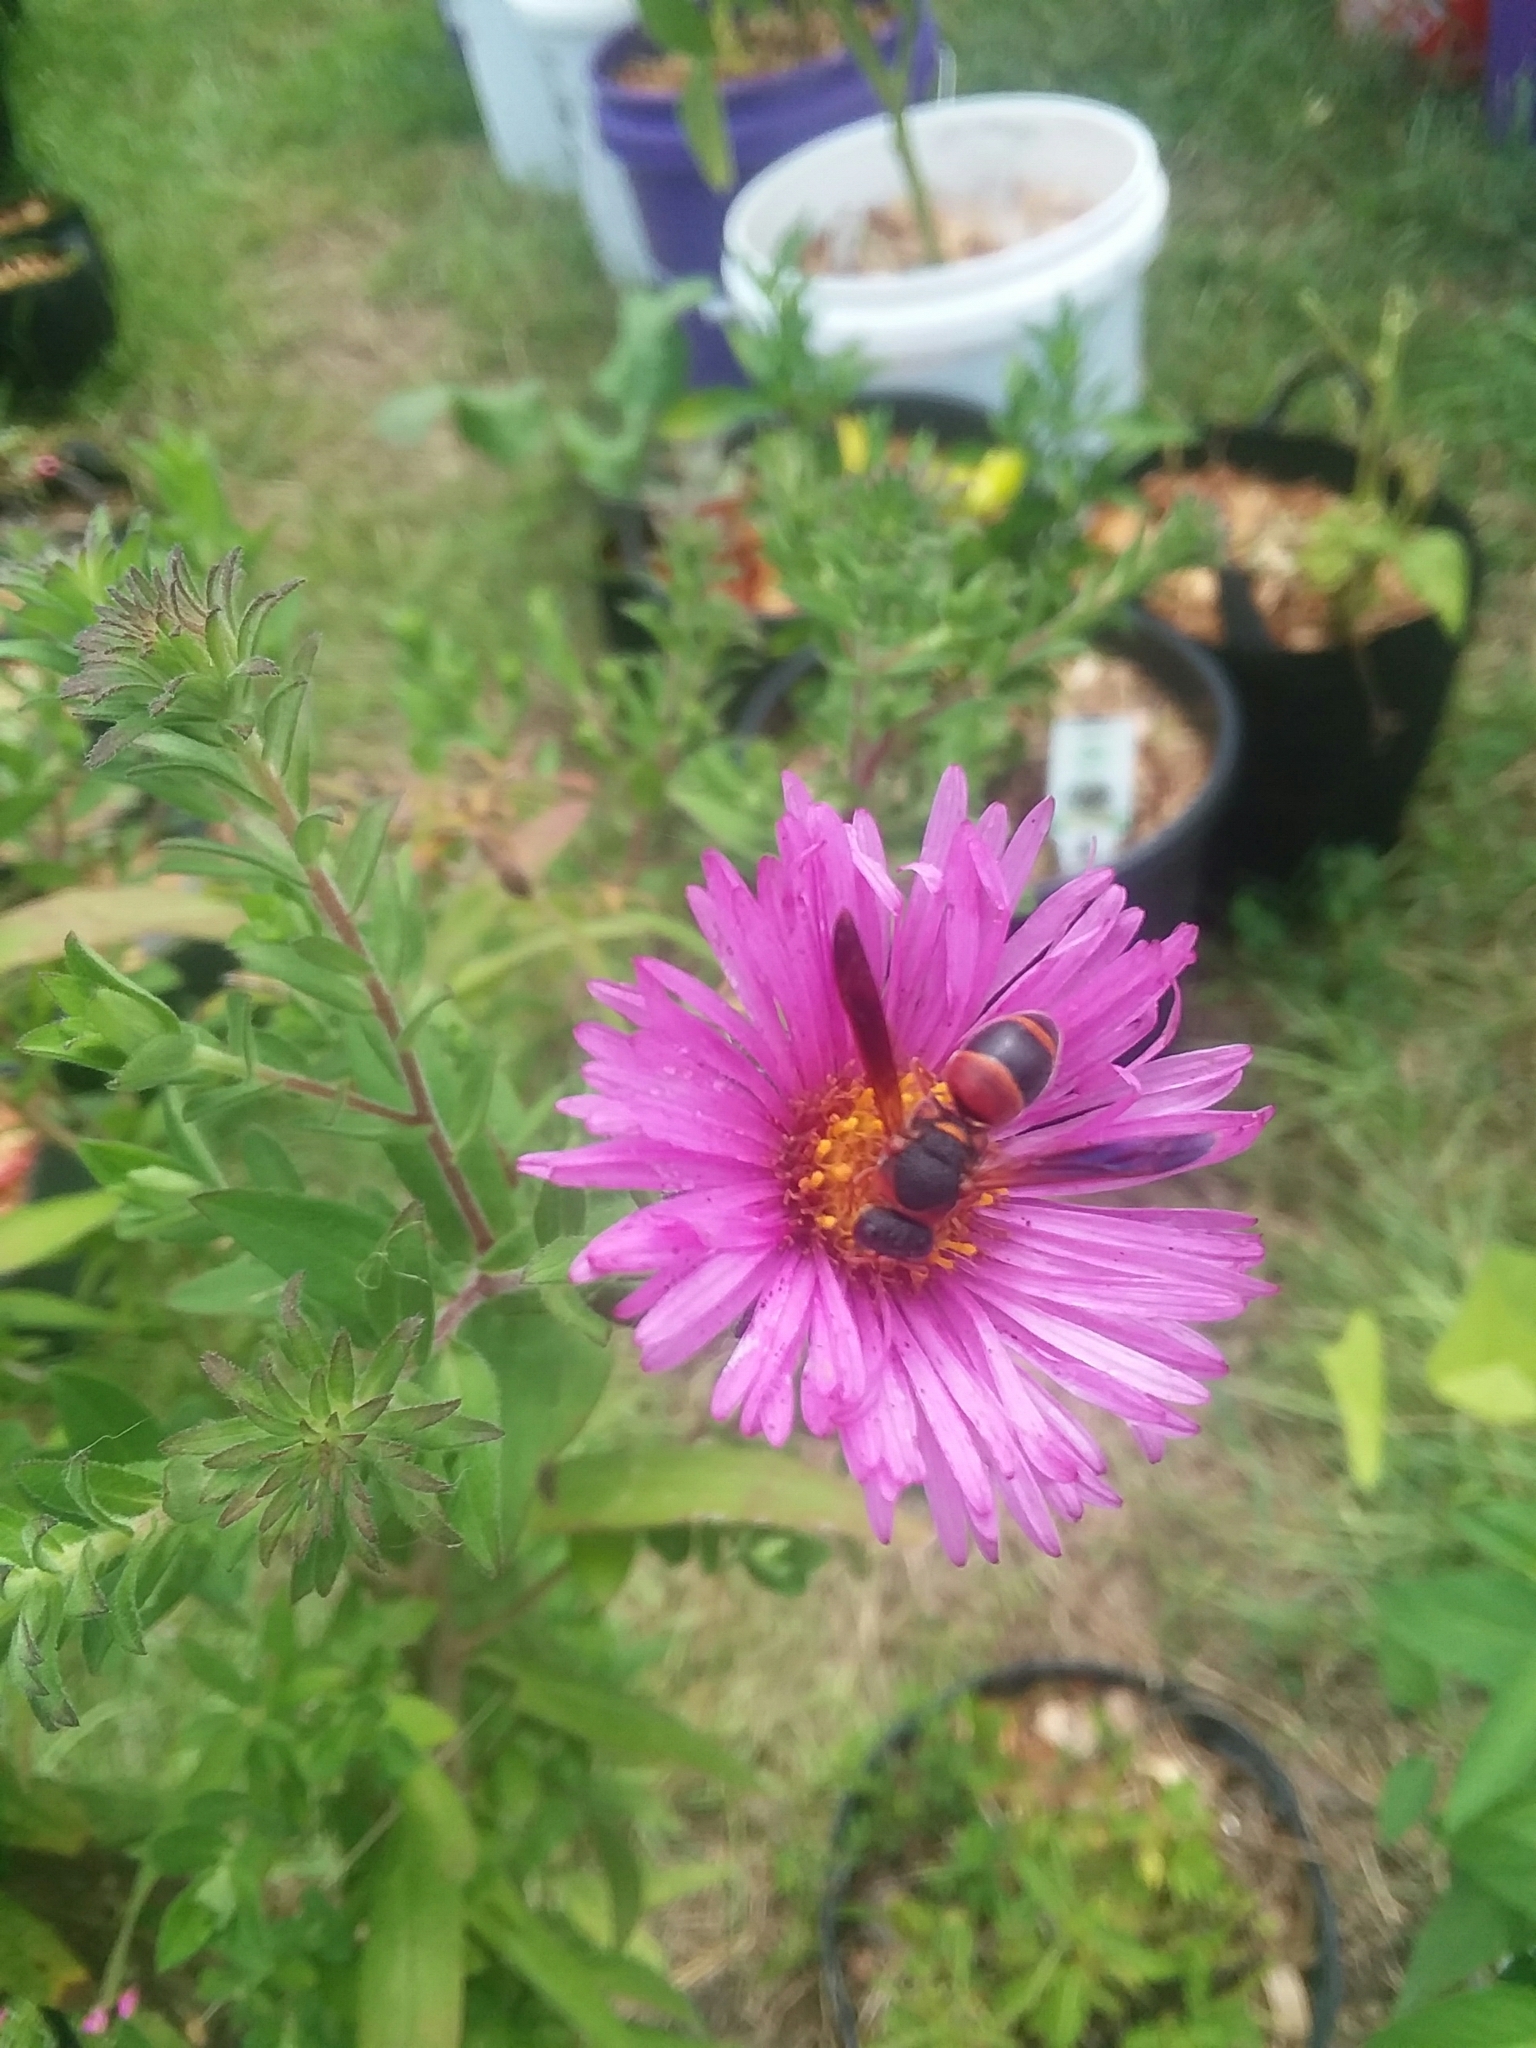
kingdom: Animalia
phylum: Arthropoda
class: Insecta
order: Hymenoptera
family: Eumenidae
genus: Pachodynerus
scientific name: Pachodynerus erynnis
